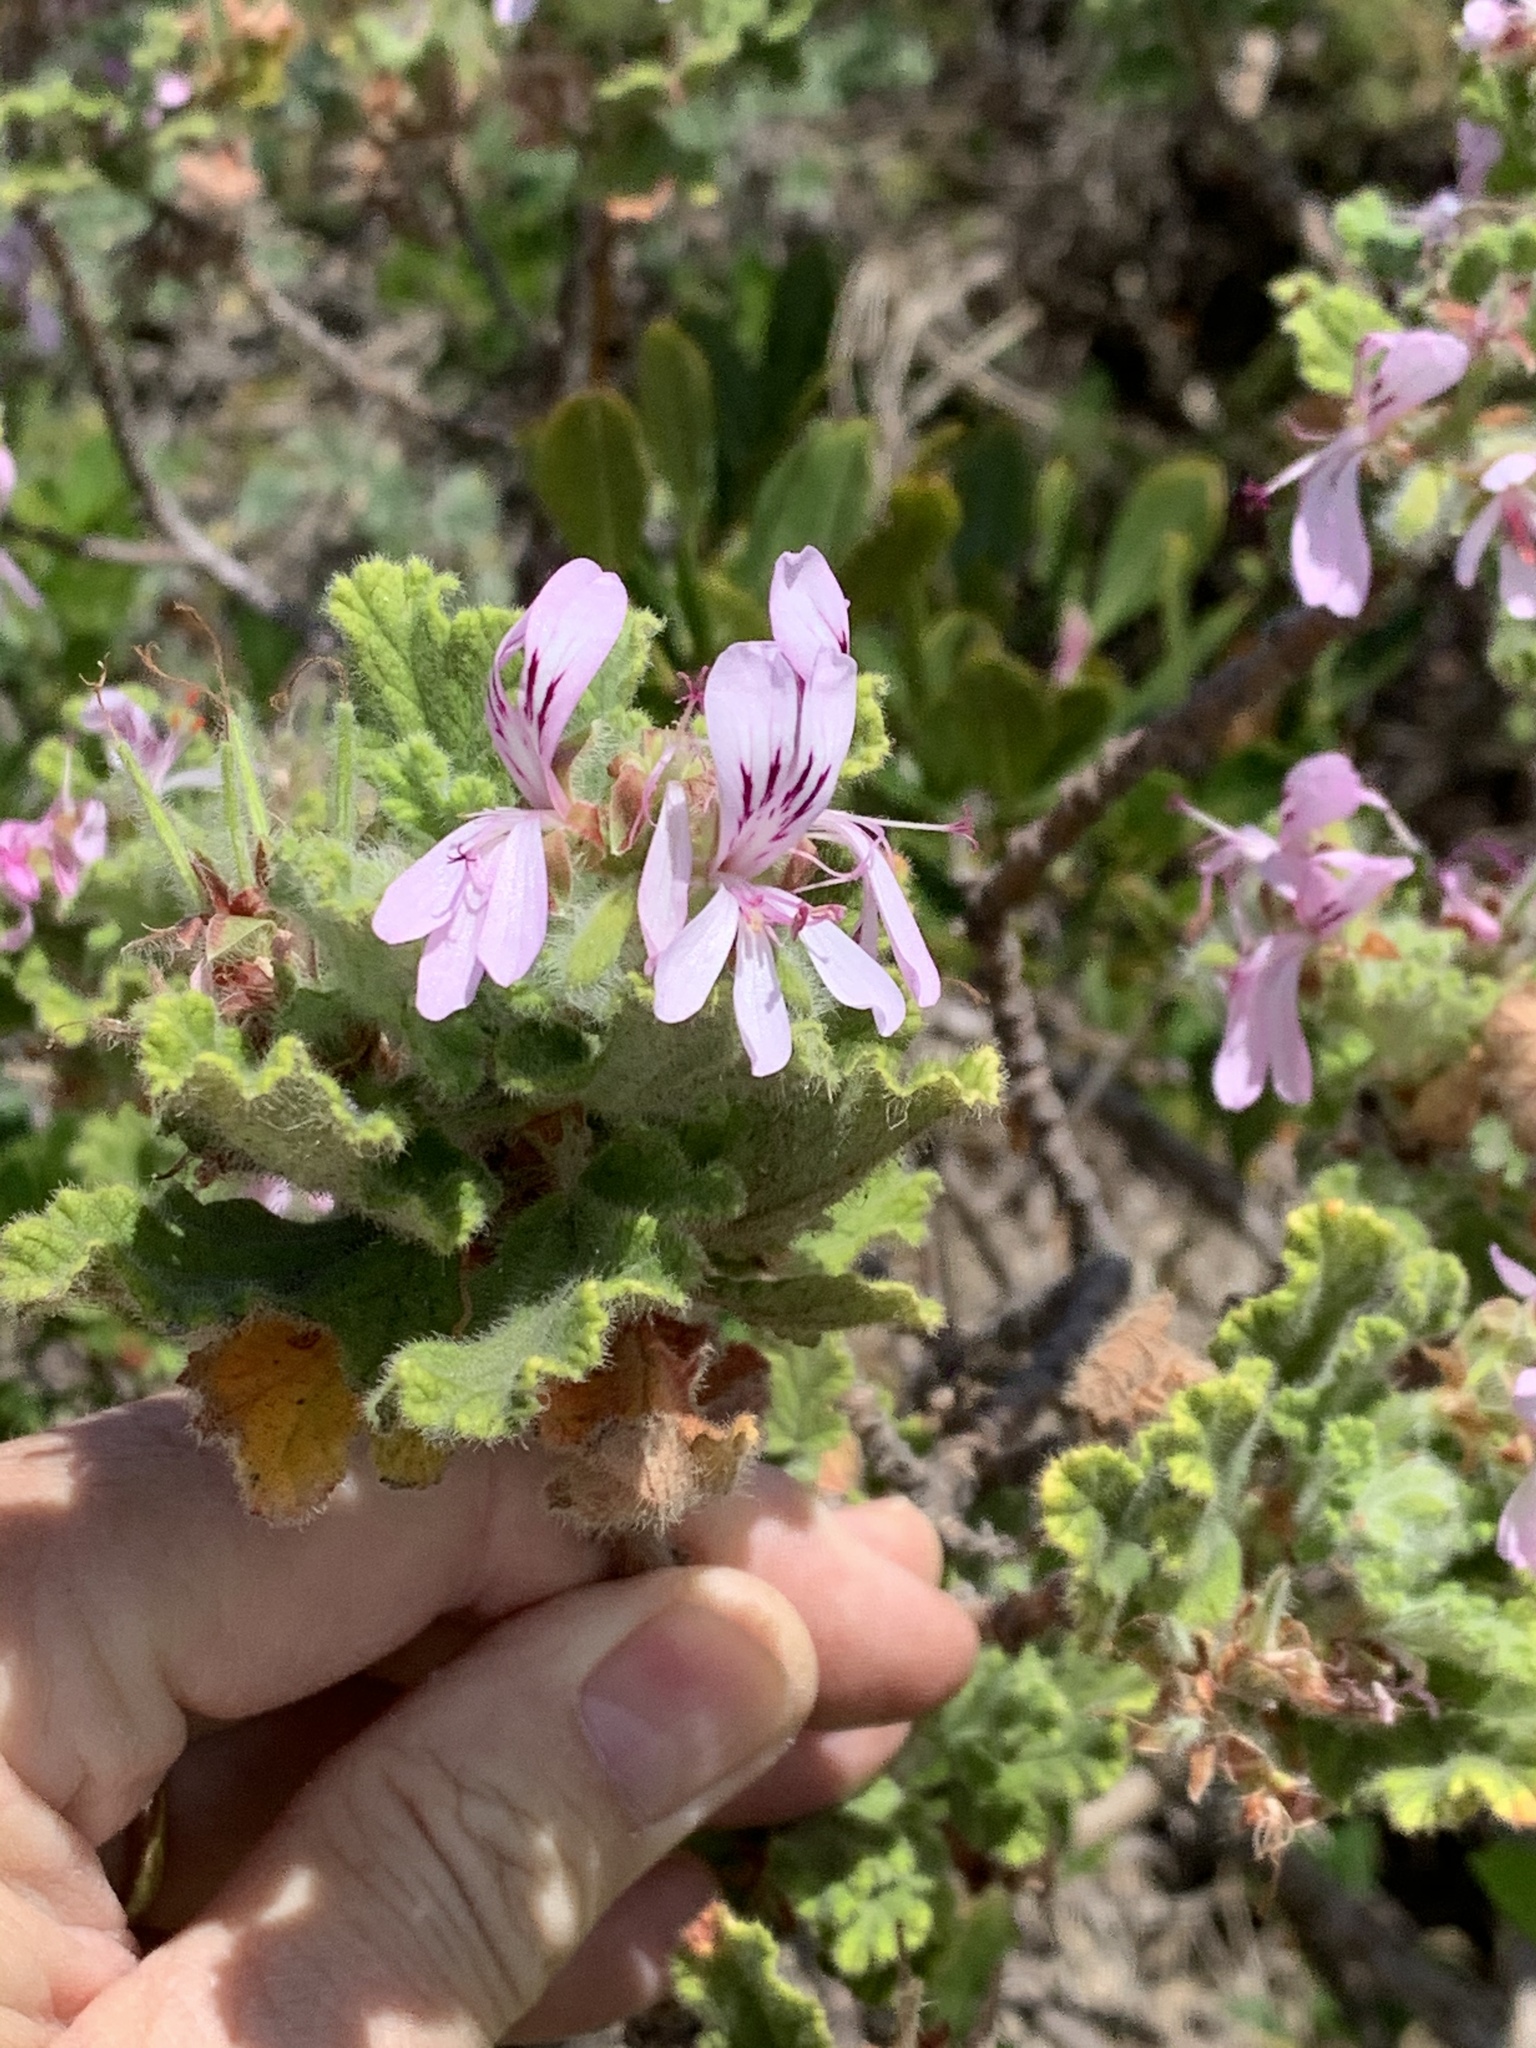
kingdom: Plantae
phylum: Tracheophyta
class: Magnoliopsida
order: Geraniales
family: Geraniaceae
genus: Pelargonium
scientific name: Pelargonium panduriforme
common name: Oakleaf garden geranium
